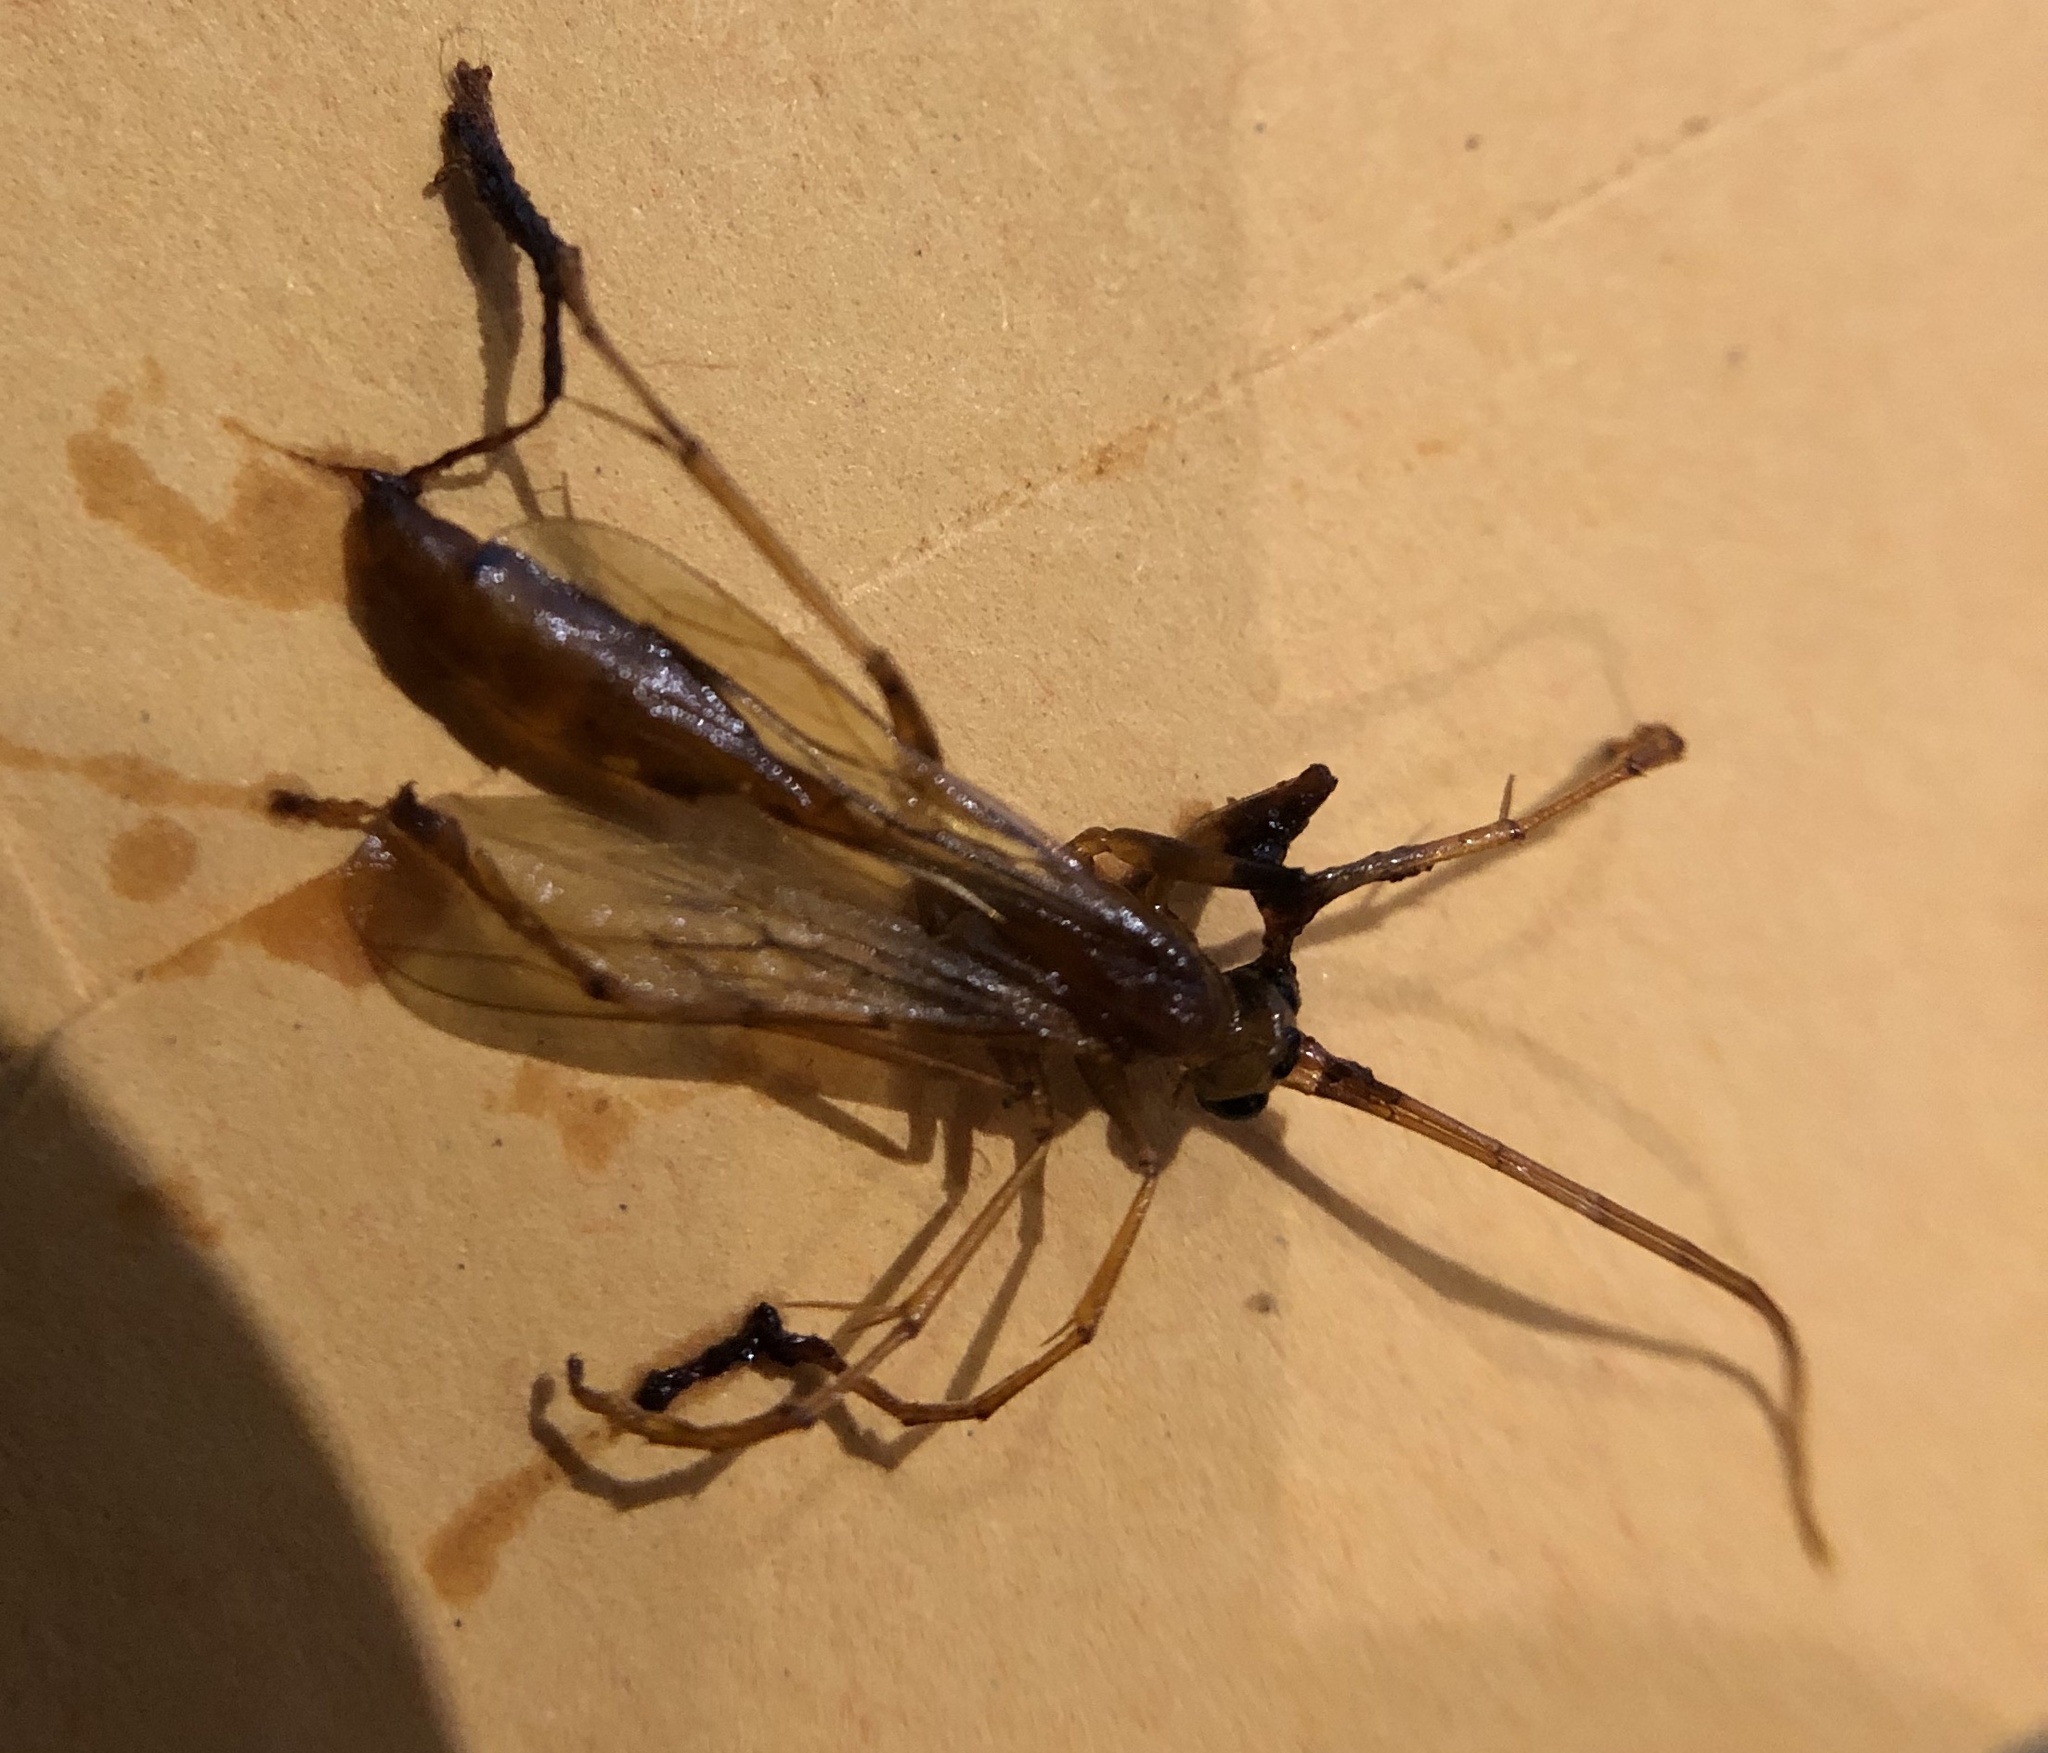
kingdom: Animalia
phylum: Arthropoda
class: Insecta
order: Hymenoptera
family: Rhopalosomatidae
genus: Rhopalosoma
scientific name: Rhopalosoma nearcticum
